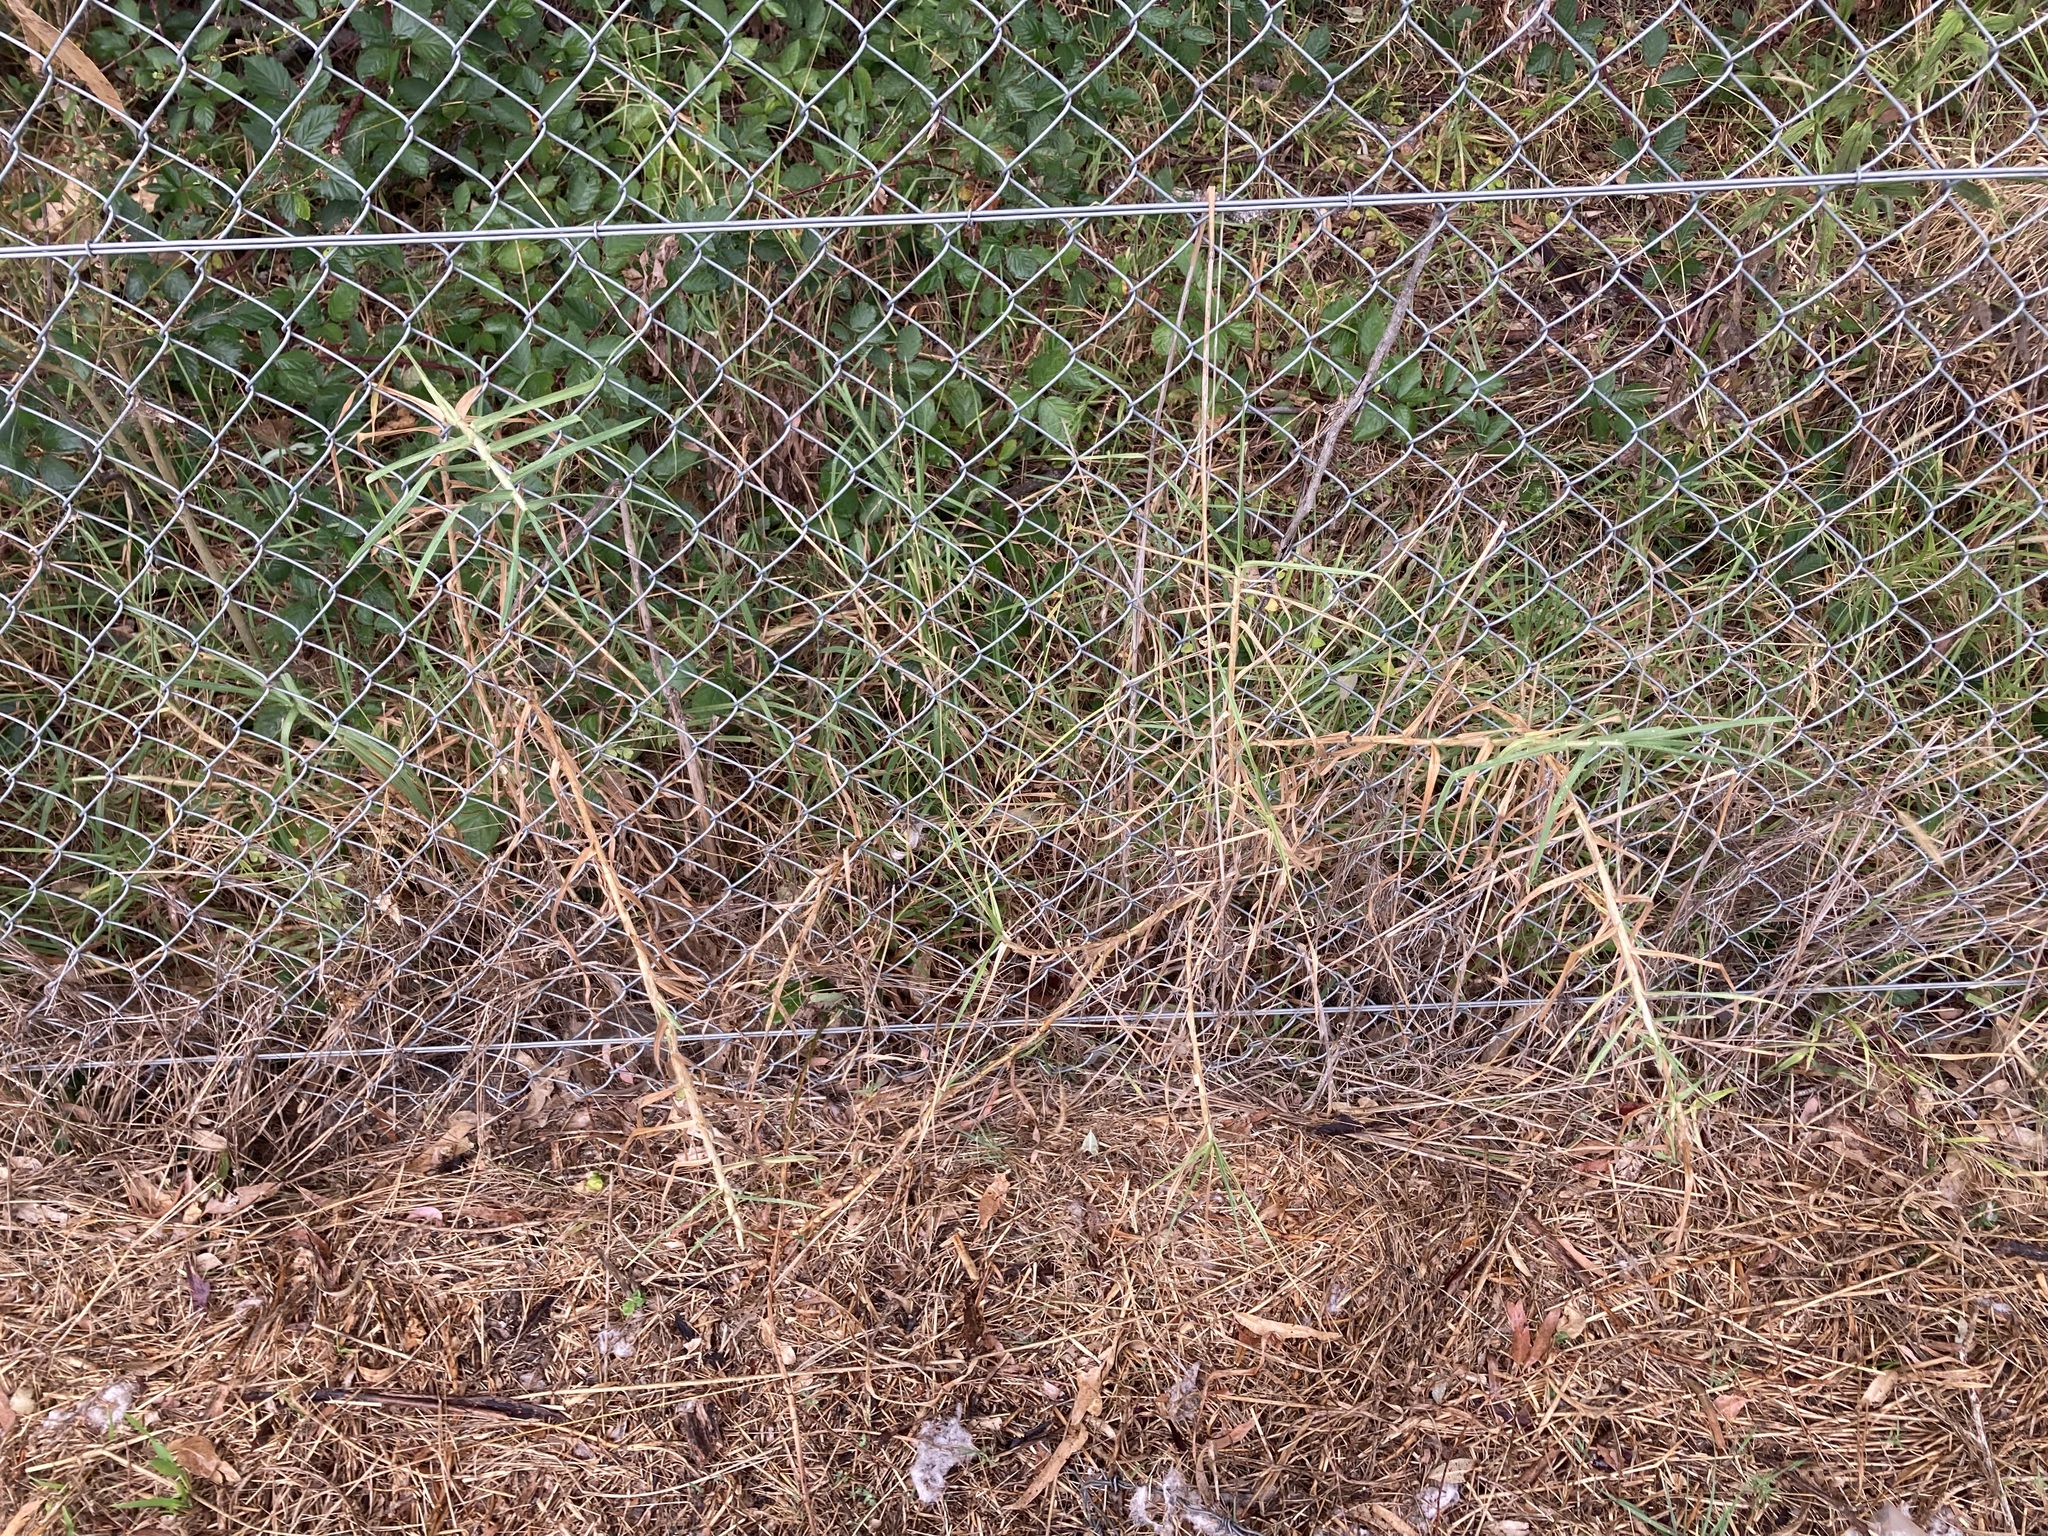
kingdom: Plantae
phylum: Tracheophyta
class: Liliopsida
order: Poales
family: Poaceae
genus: Cenchrus
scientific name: Cenchrus clandestinus
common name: Kikuyugrass
